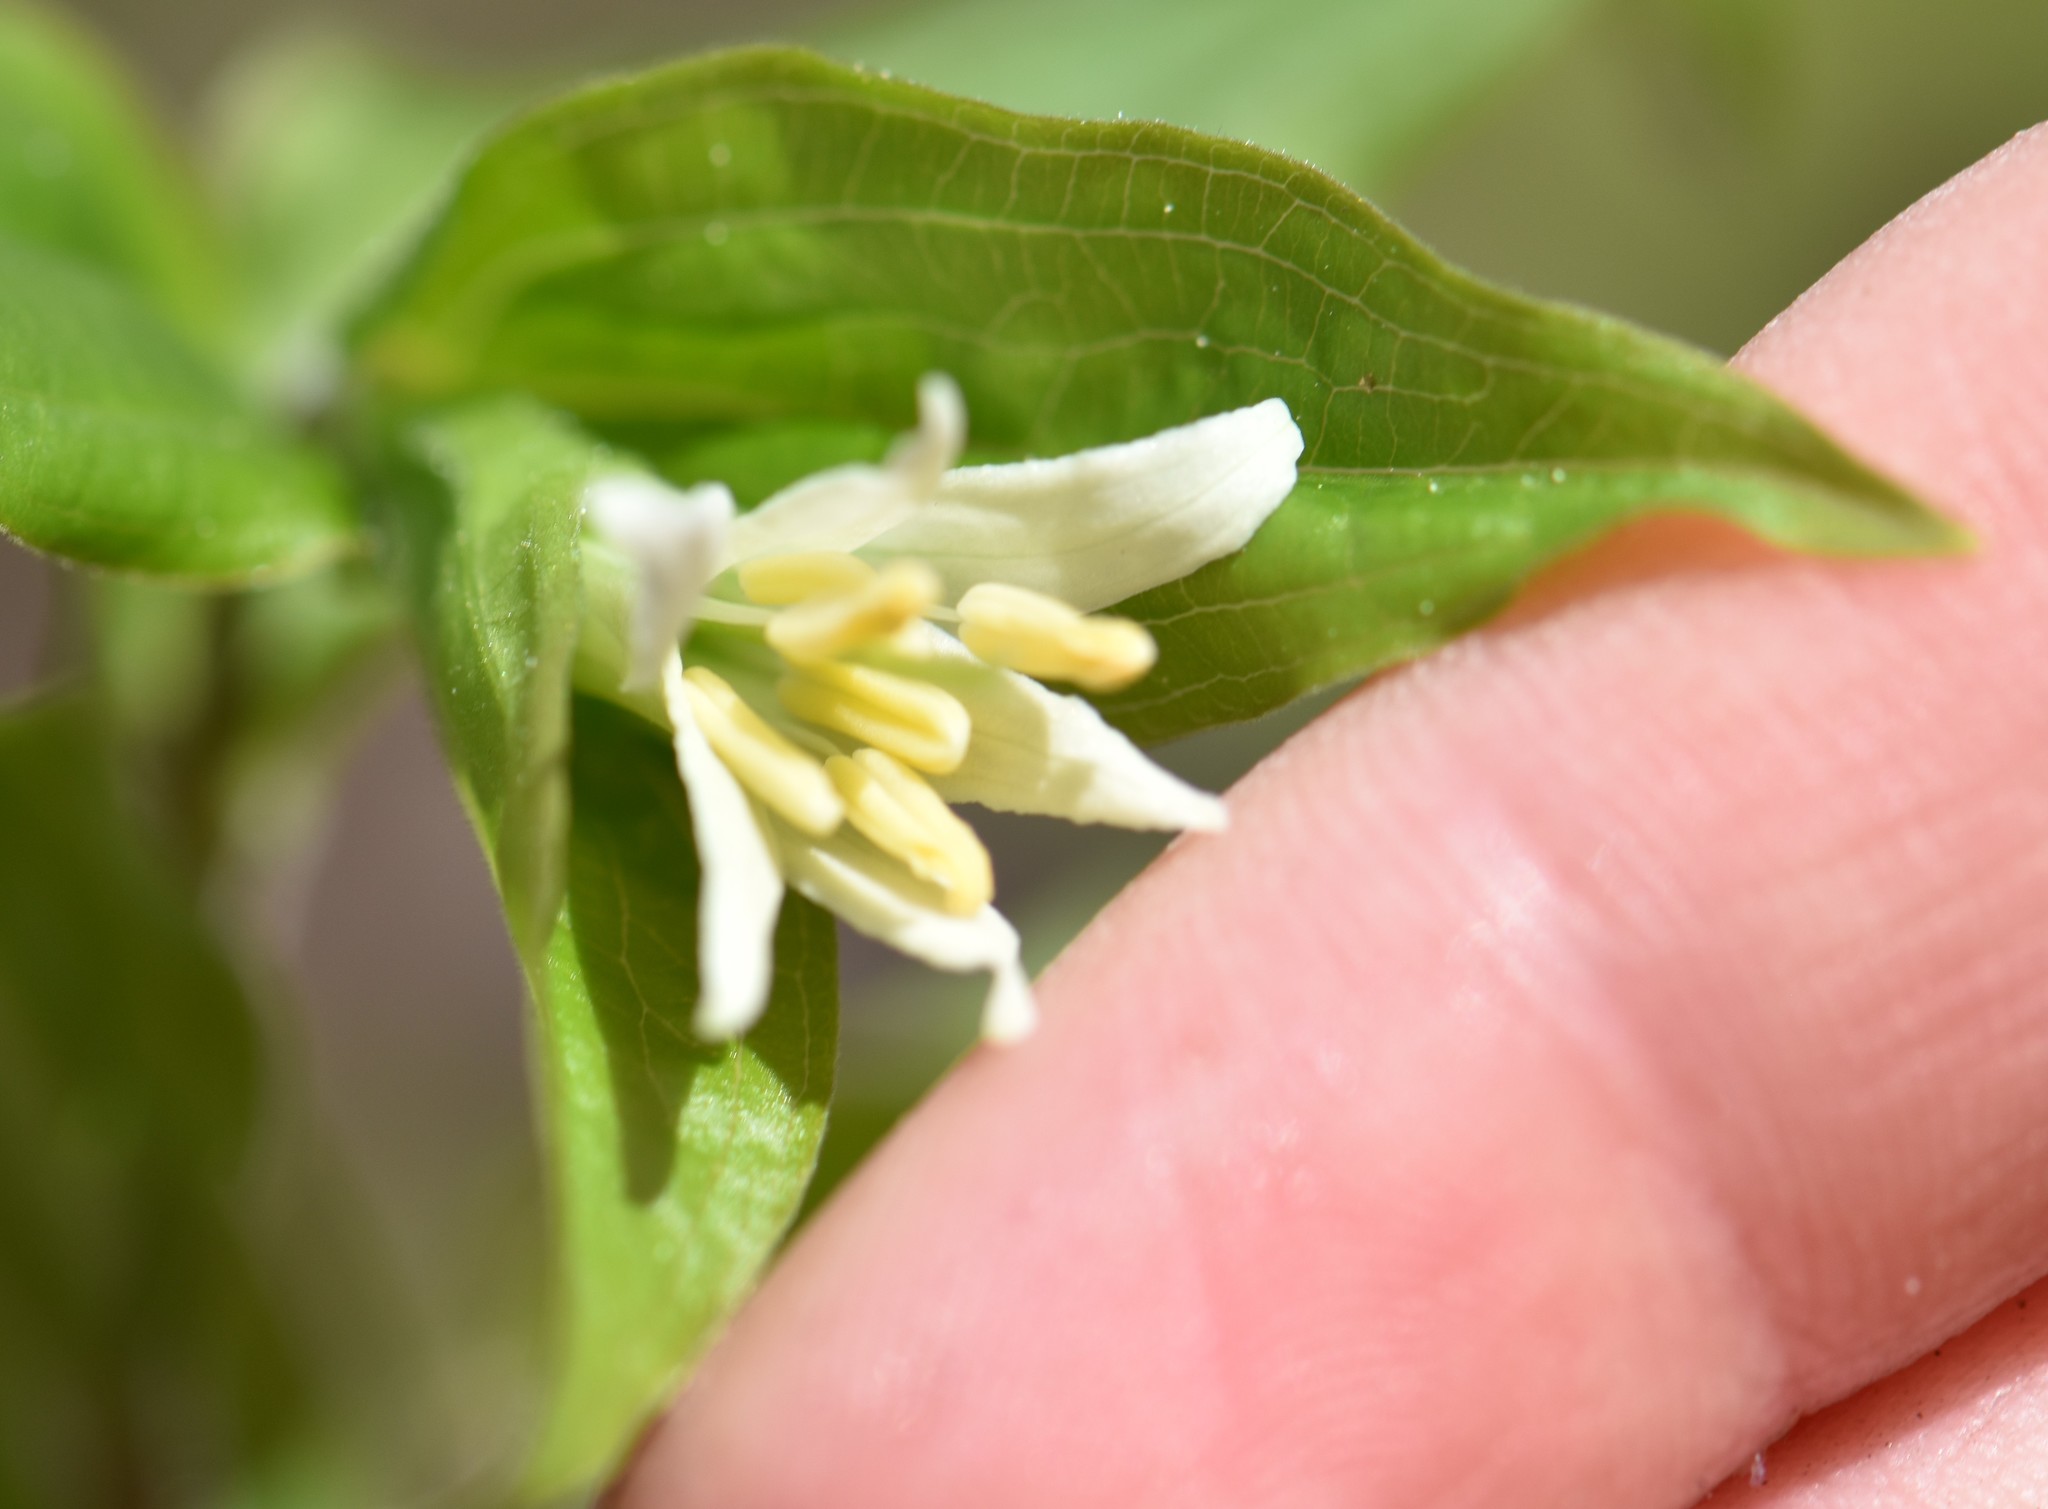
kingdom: Plantae
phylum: Tracheophyta
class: Liliopsida
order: Liliales
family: Liliaceae
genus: Prosartes
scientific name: Prosartes trachycarpa
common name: Rough-fruit fairy-bells
